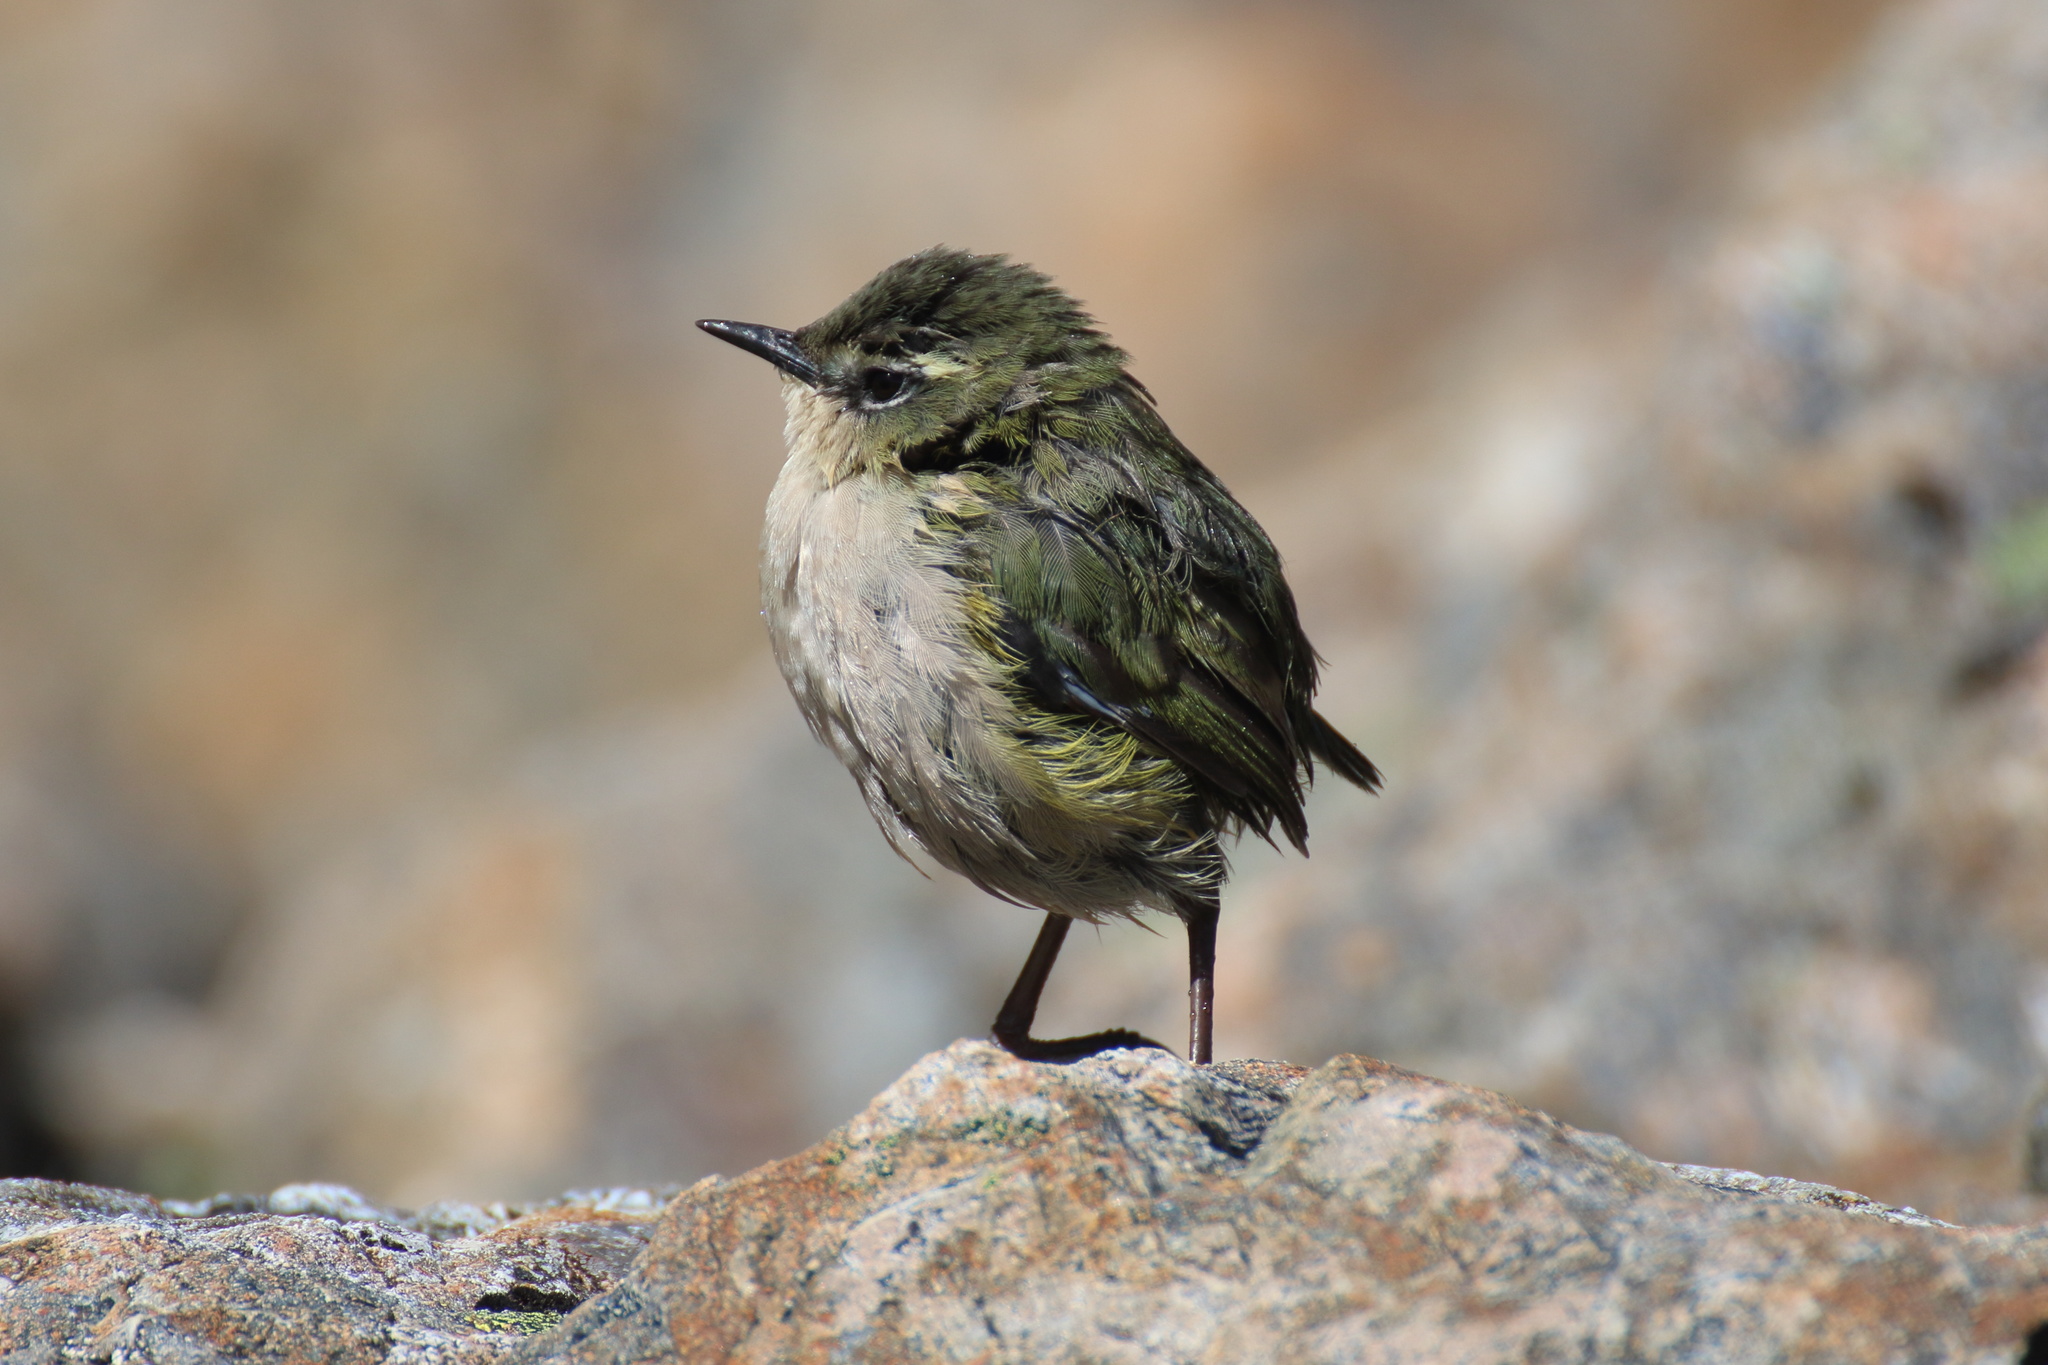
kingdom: Animalia
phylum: Chordata
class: Aves
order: Passeriformes
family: Acanthisittidae
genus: Xenicus
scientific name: Xenicus gilviventris
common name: New zealand rockwren
